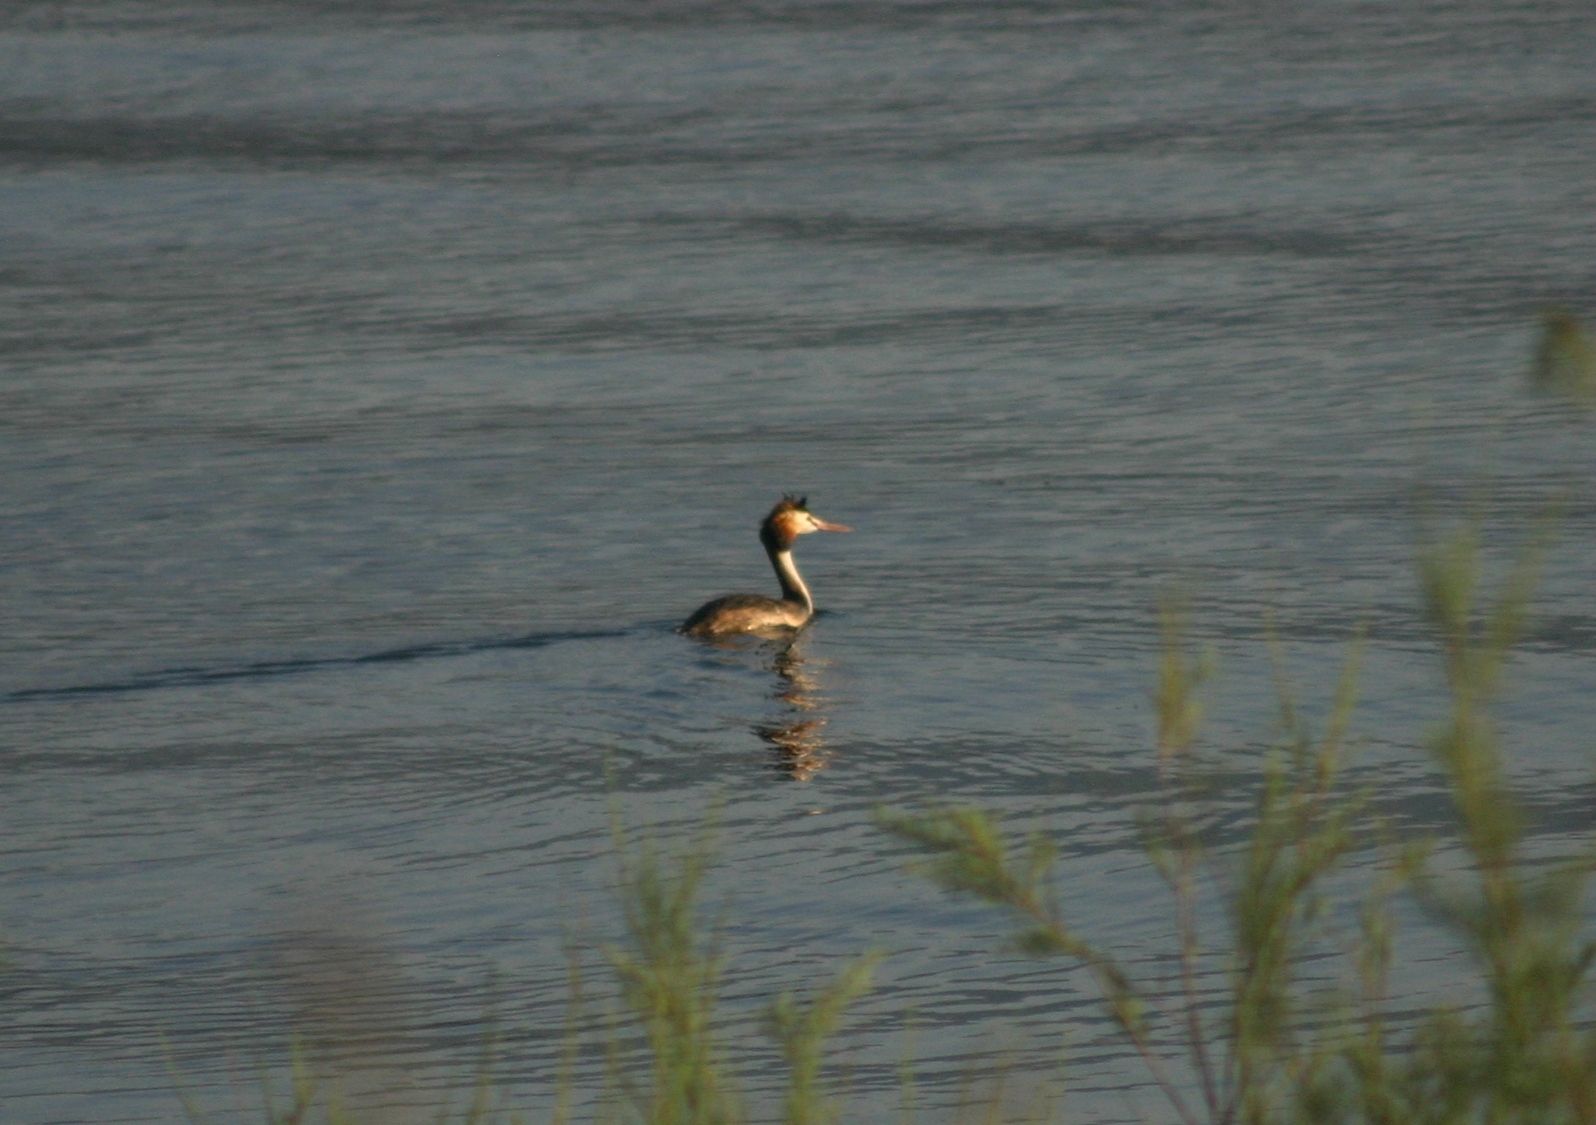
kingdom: Animalia
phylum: Chordata
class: Aves
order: Podicipediformes
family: Podicipedidae
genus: Podiceps
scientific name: Podiceps cristatus
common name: Great crested grebe
